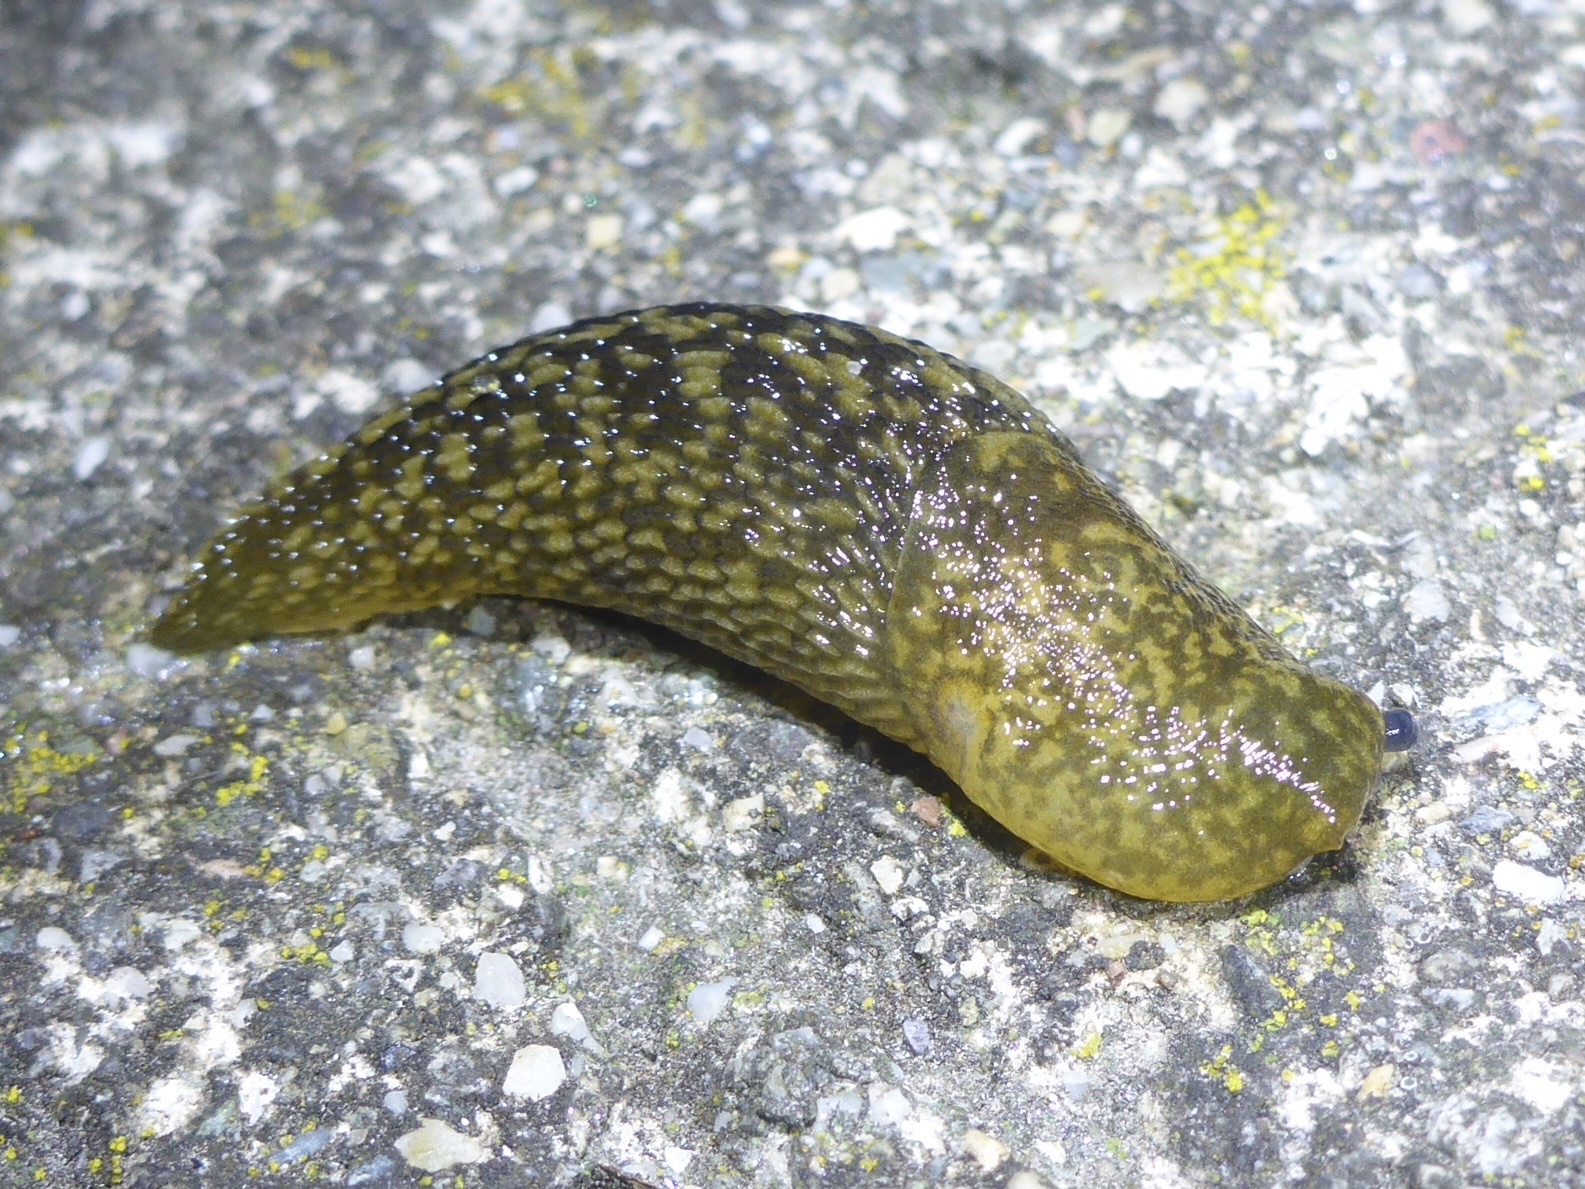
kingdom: Animalia
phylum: Mollusca
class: Gastropoda
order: Stylommatophora
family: Limacidae
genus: Limacus
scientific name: Limacus flavus
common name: Yellow gardenslug
